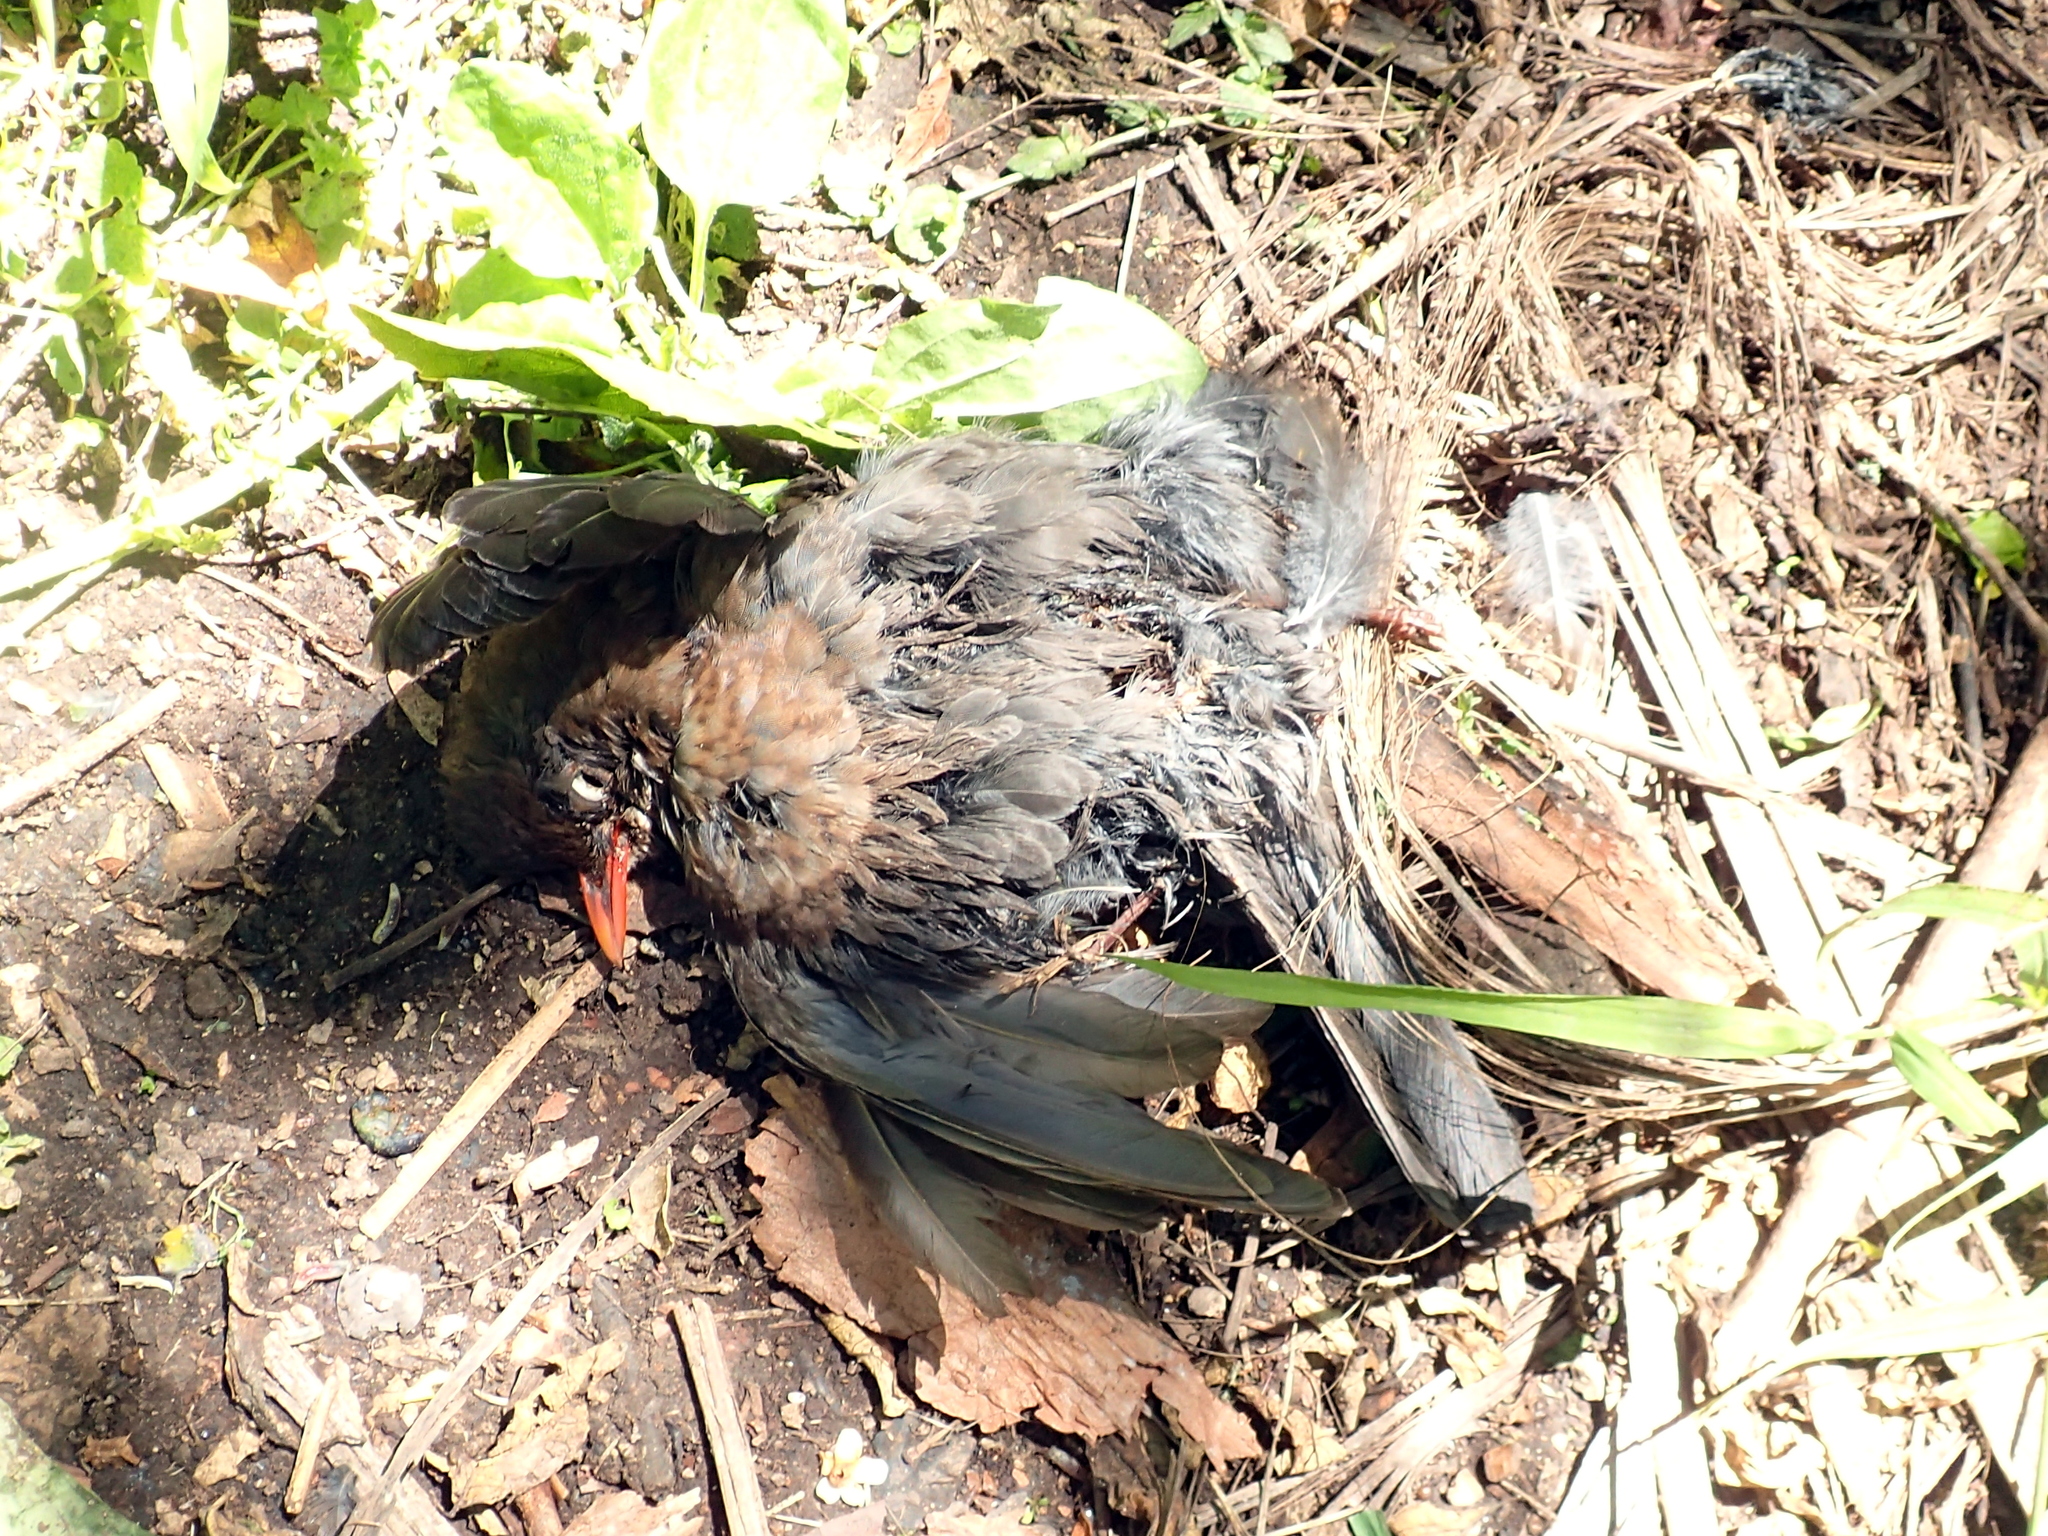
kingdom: Animalia
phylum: Chordata
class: Aves
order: Passeriformes
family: Turdidae
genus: Turdus
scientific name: Turdus merula
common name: Common blackbird
